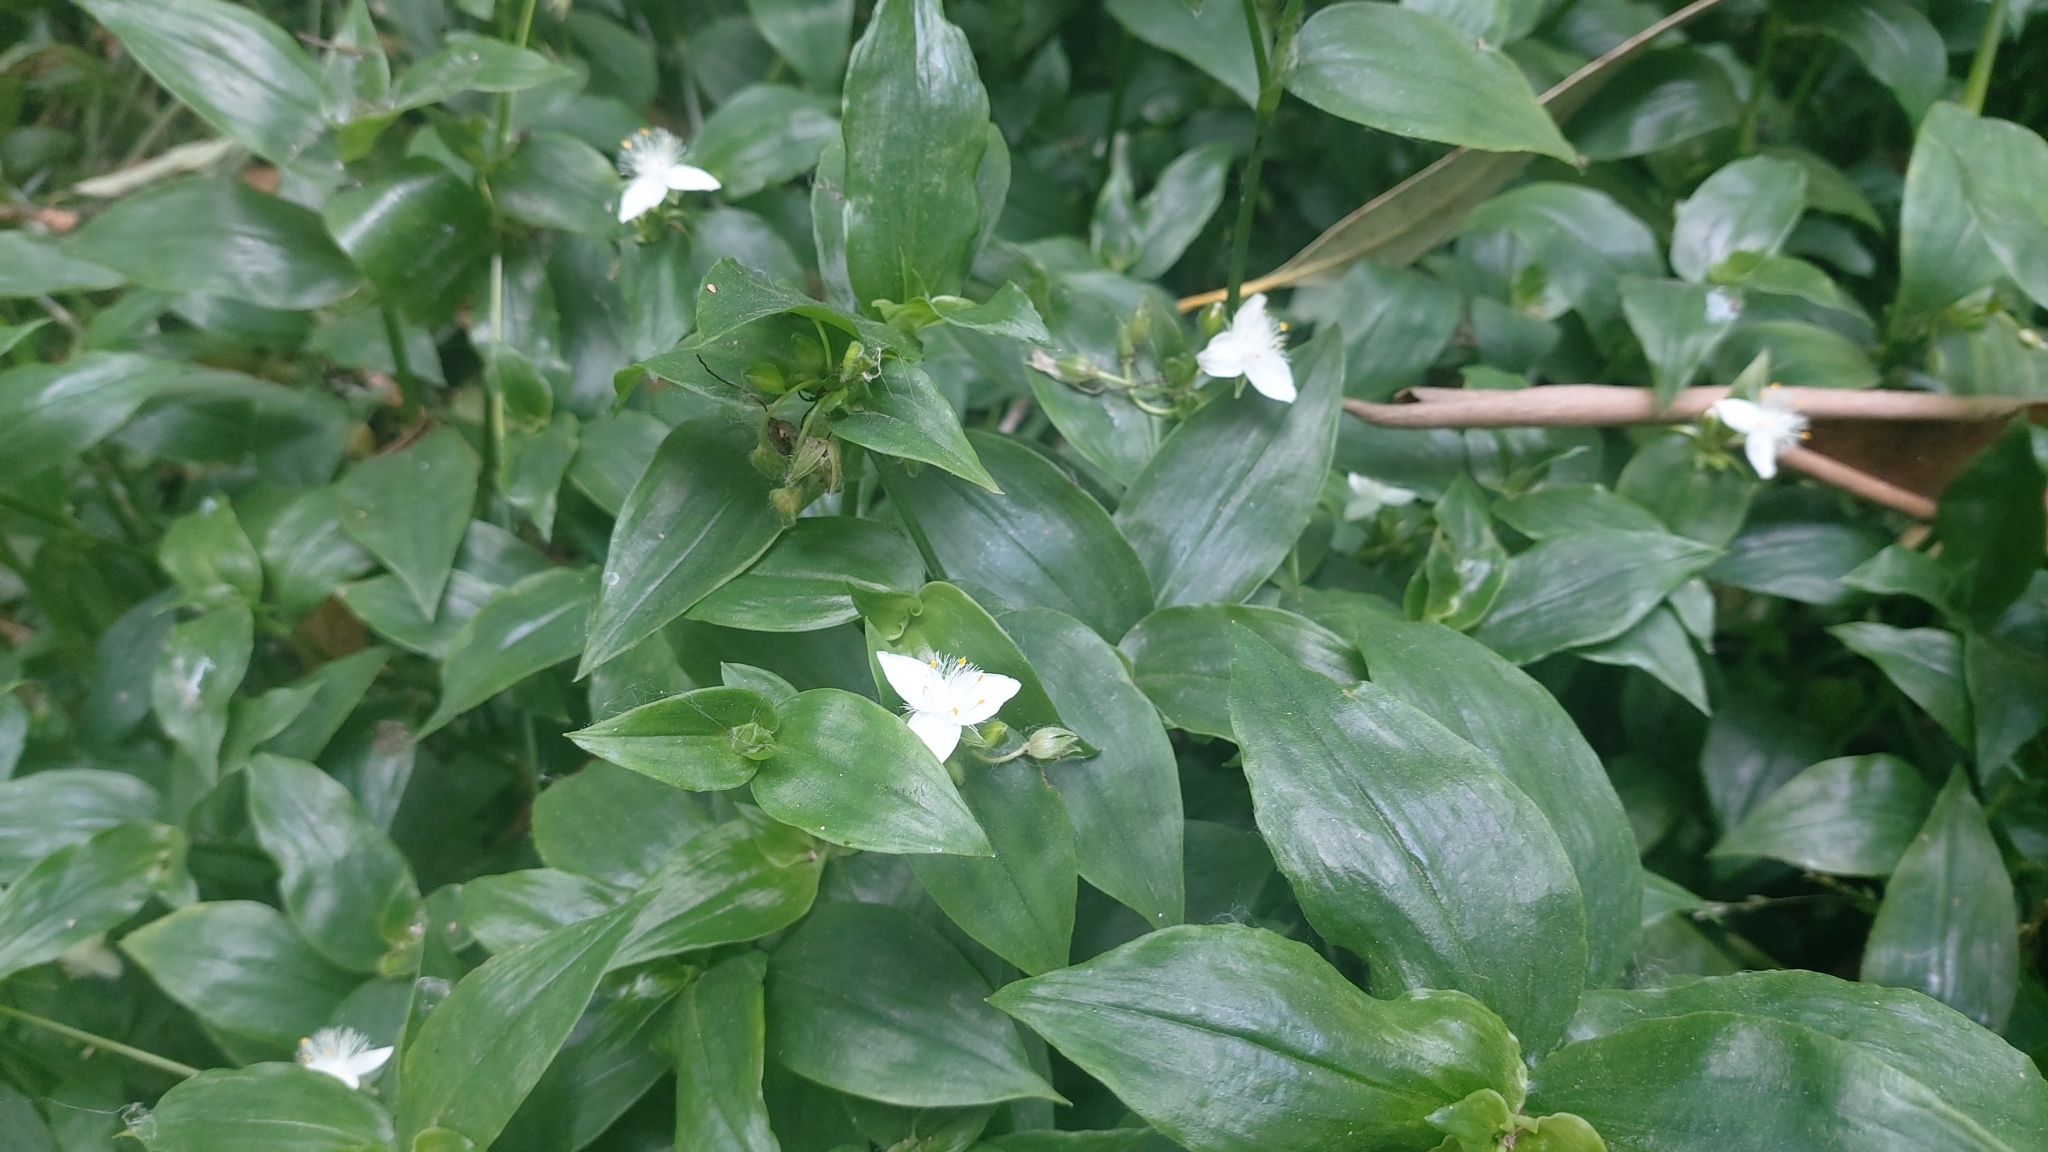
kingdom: Plantae
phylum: Tracheophyta
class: Liliopsida
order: Commelinales
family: Commelinaceae
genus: Tradescantia
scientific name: Tradescantia fluminensis
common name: Wandering-jew
